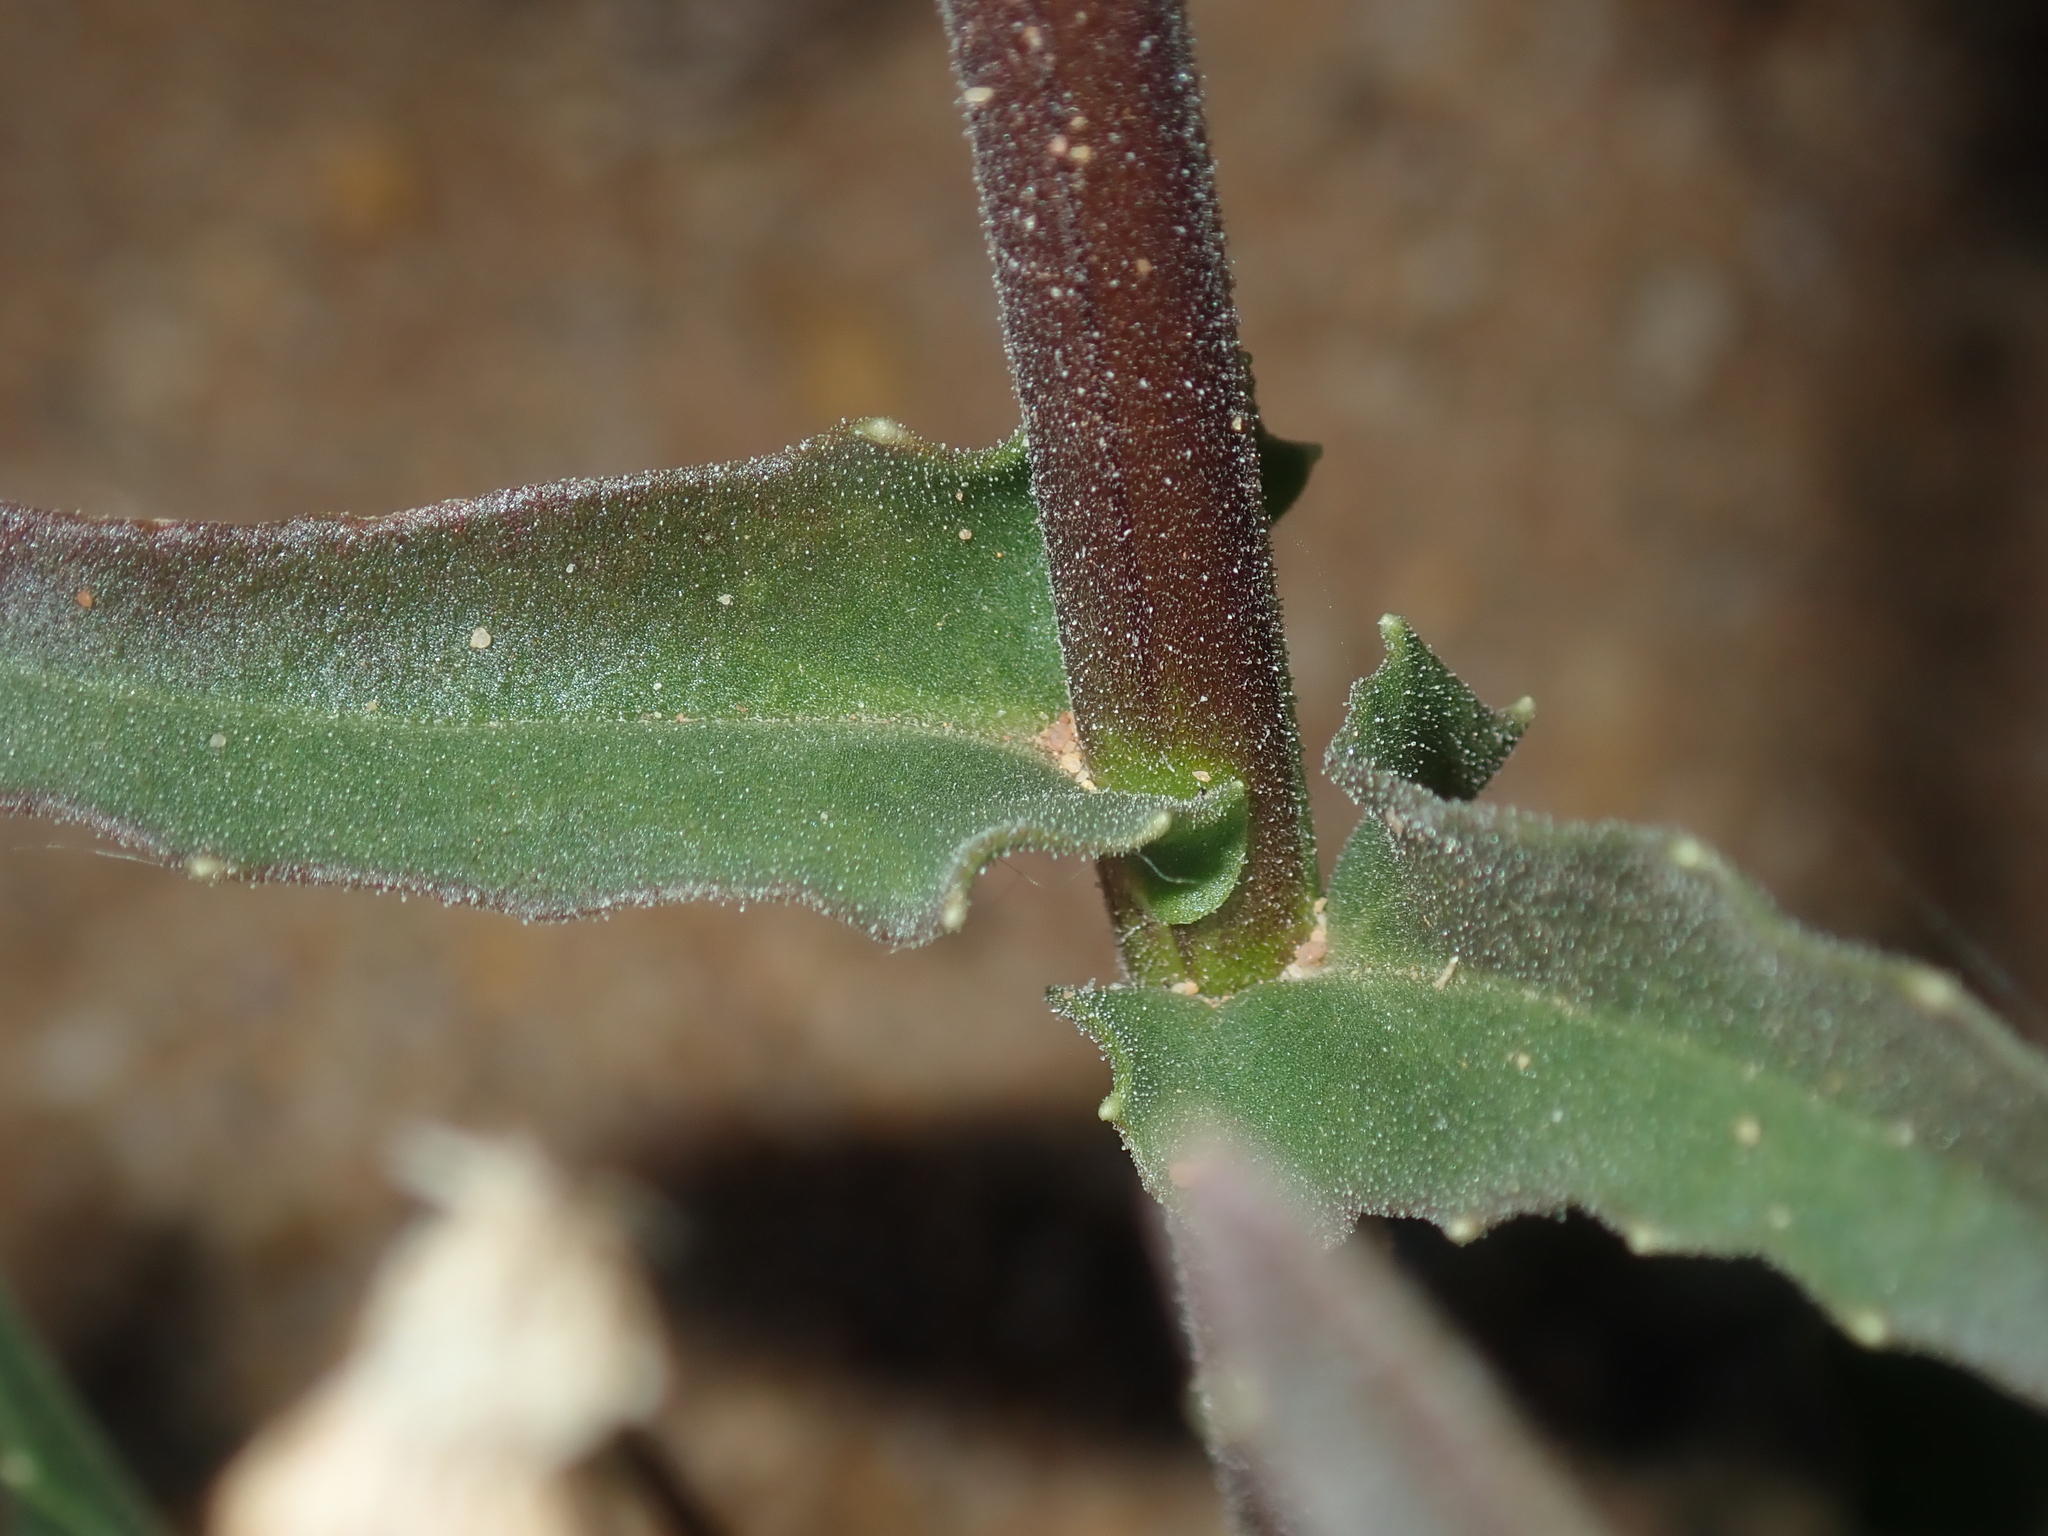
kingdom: Plantae
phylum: Tracheophyta
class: Magnoliopsida
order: Asterales
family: Asteraceae
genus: Osteospermum
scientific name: Osteospermum monstrosum
